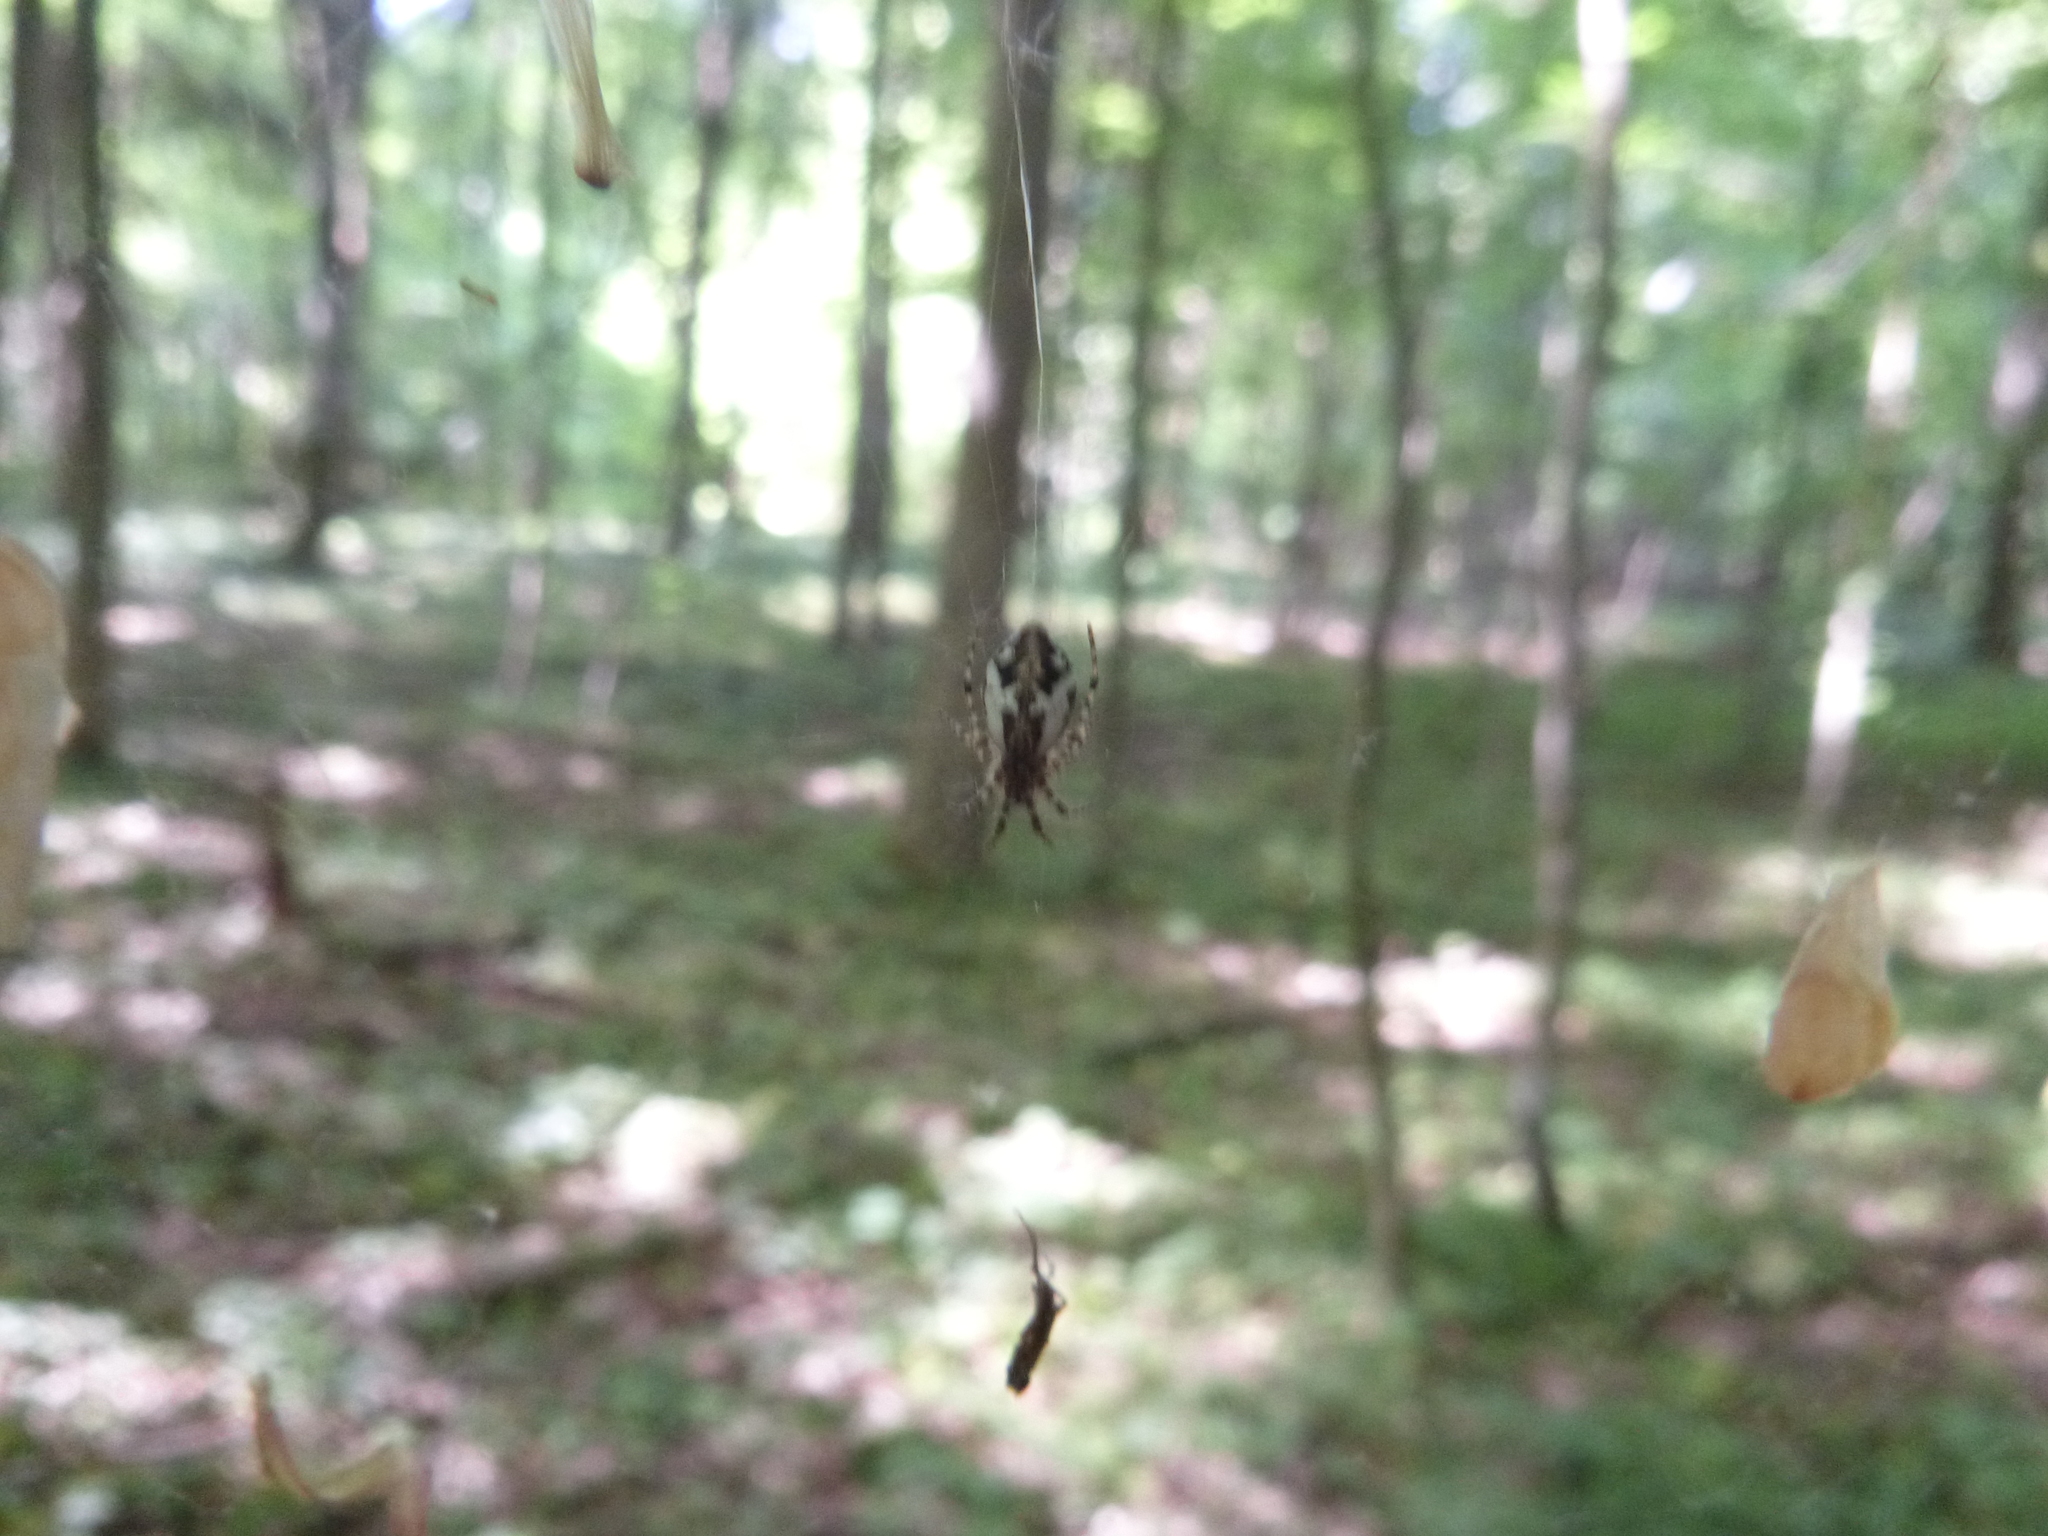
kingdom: Animalia
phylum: Arthropoda
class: Arachnida
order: Araneae
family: Araneidae
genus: Cyclosa
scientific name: Cyclosa conica
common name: Conical trashline orbweaver
